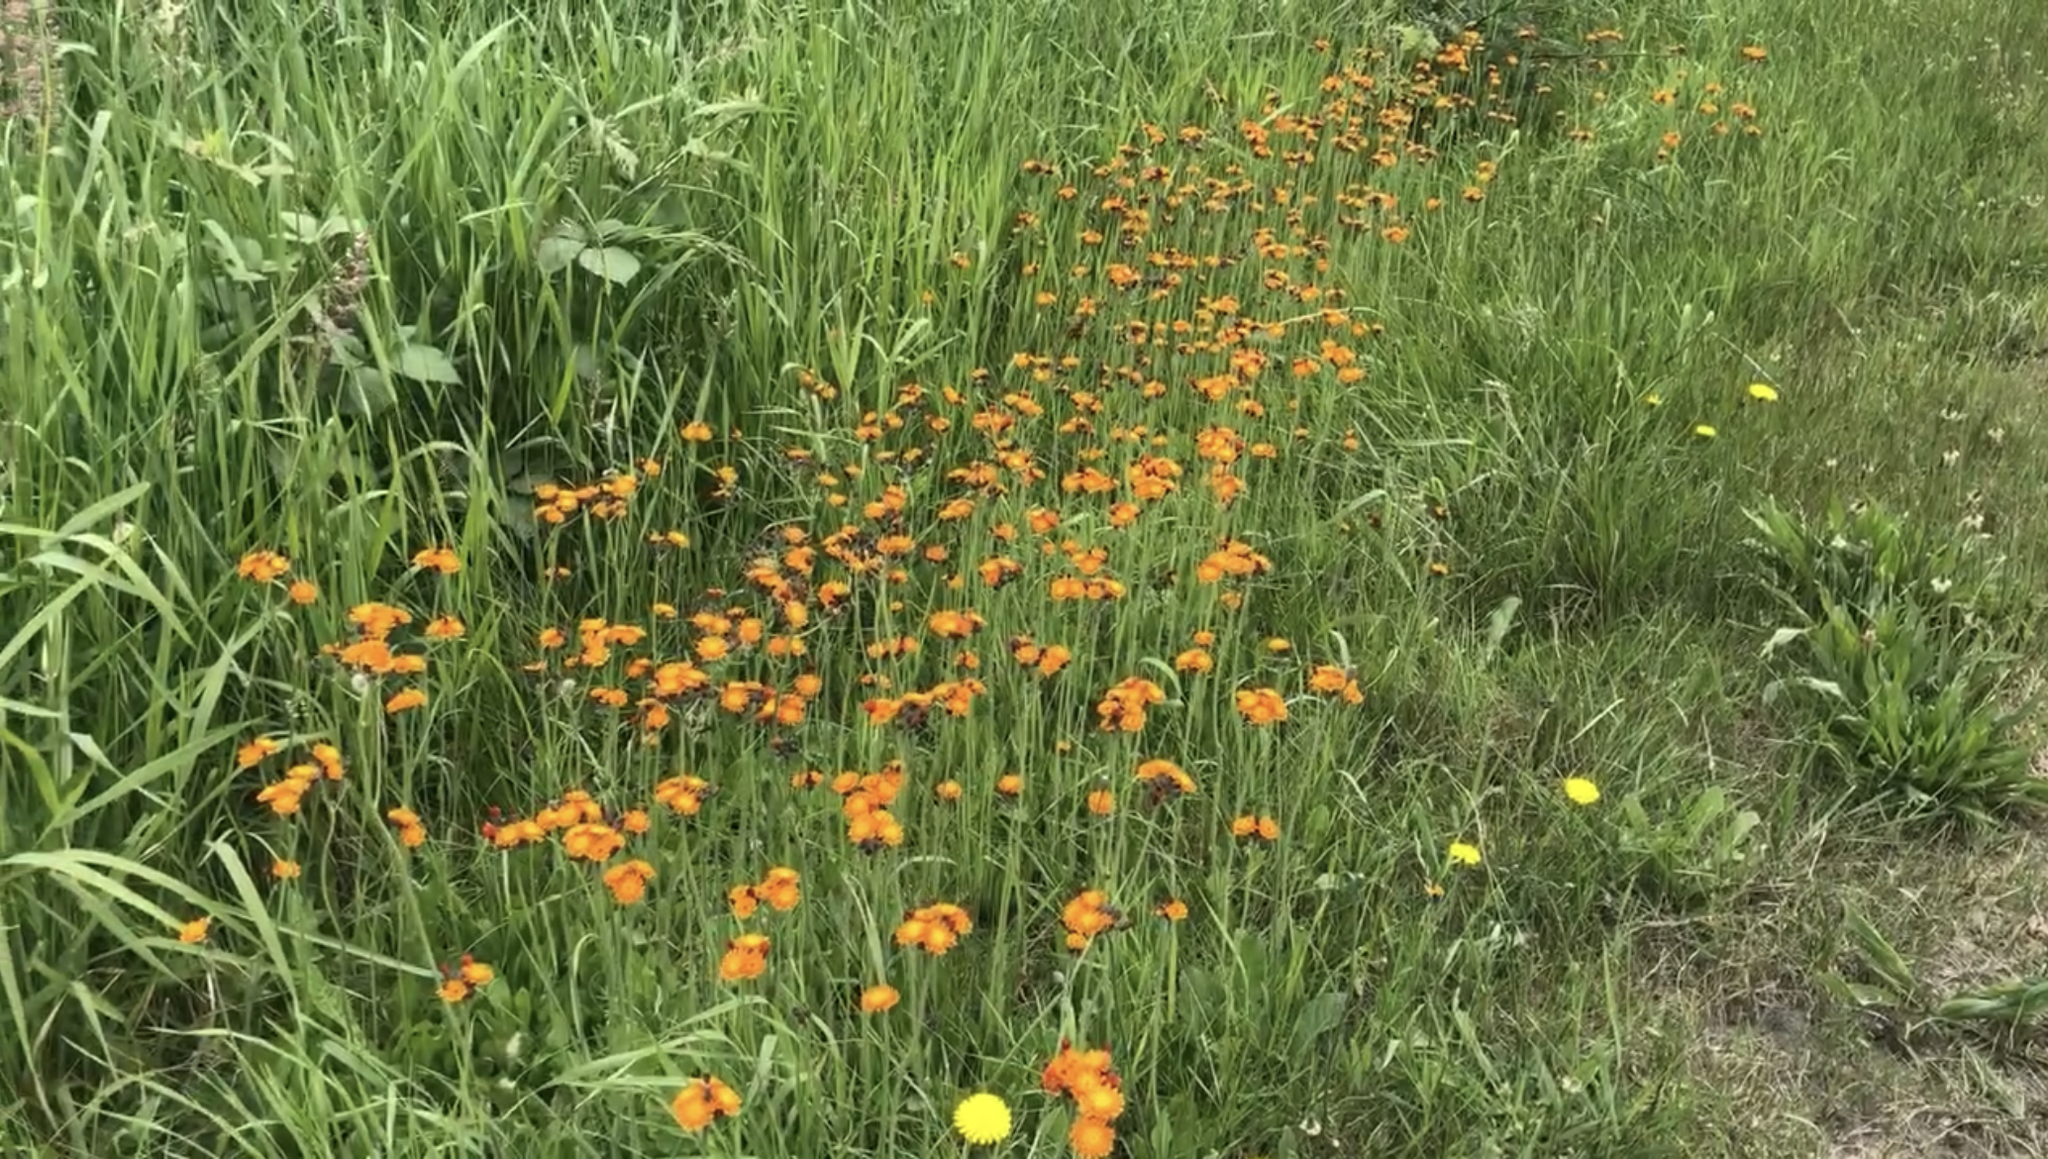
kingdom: Plantae
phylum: Tracheophyta
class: Magnoliopsida
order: Asterales
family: Asteraceae
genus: Pilosella
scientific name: Pilosella aurantiaca
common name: Fox-and-cubs
